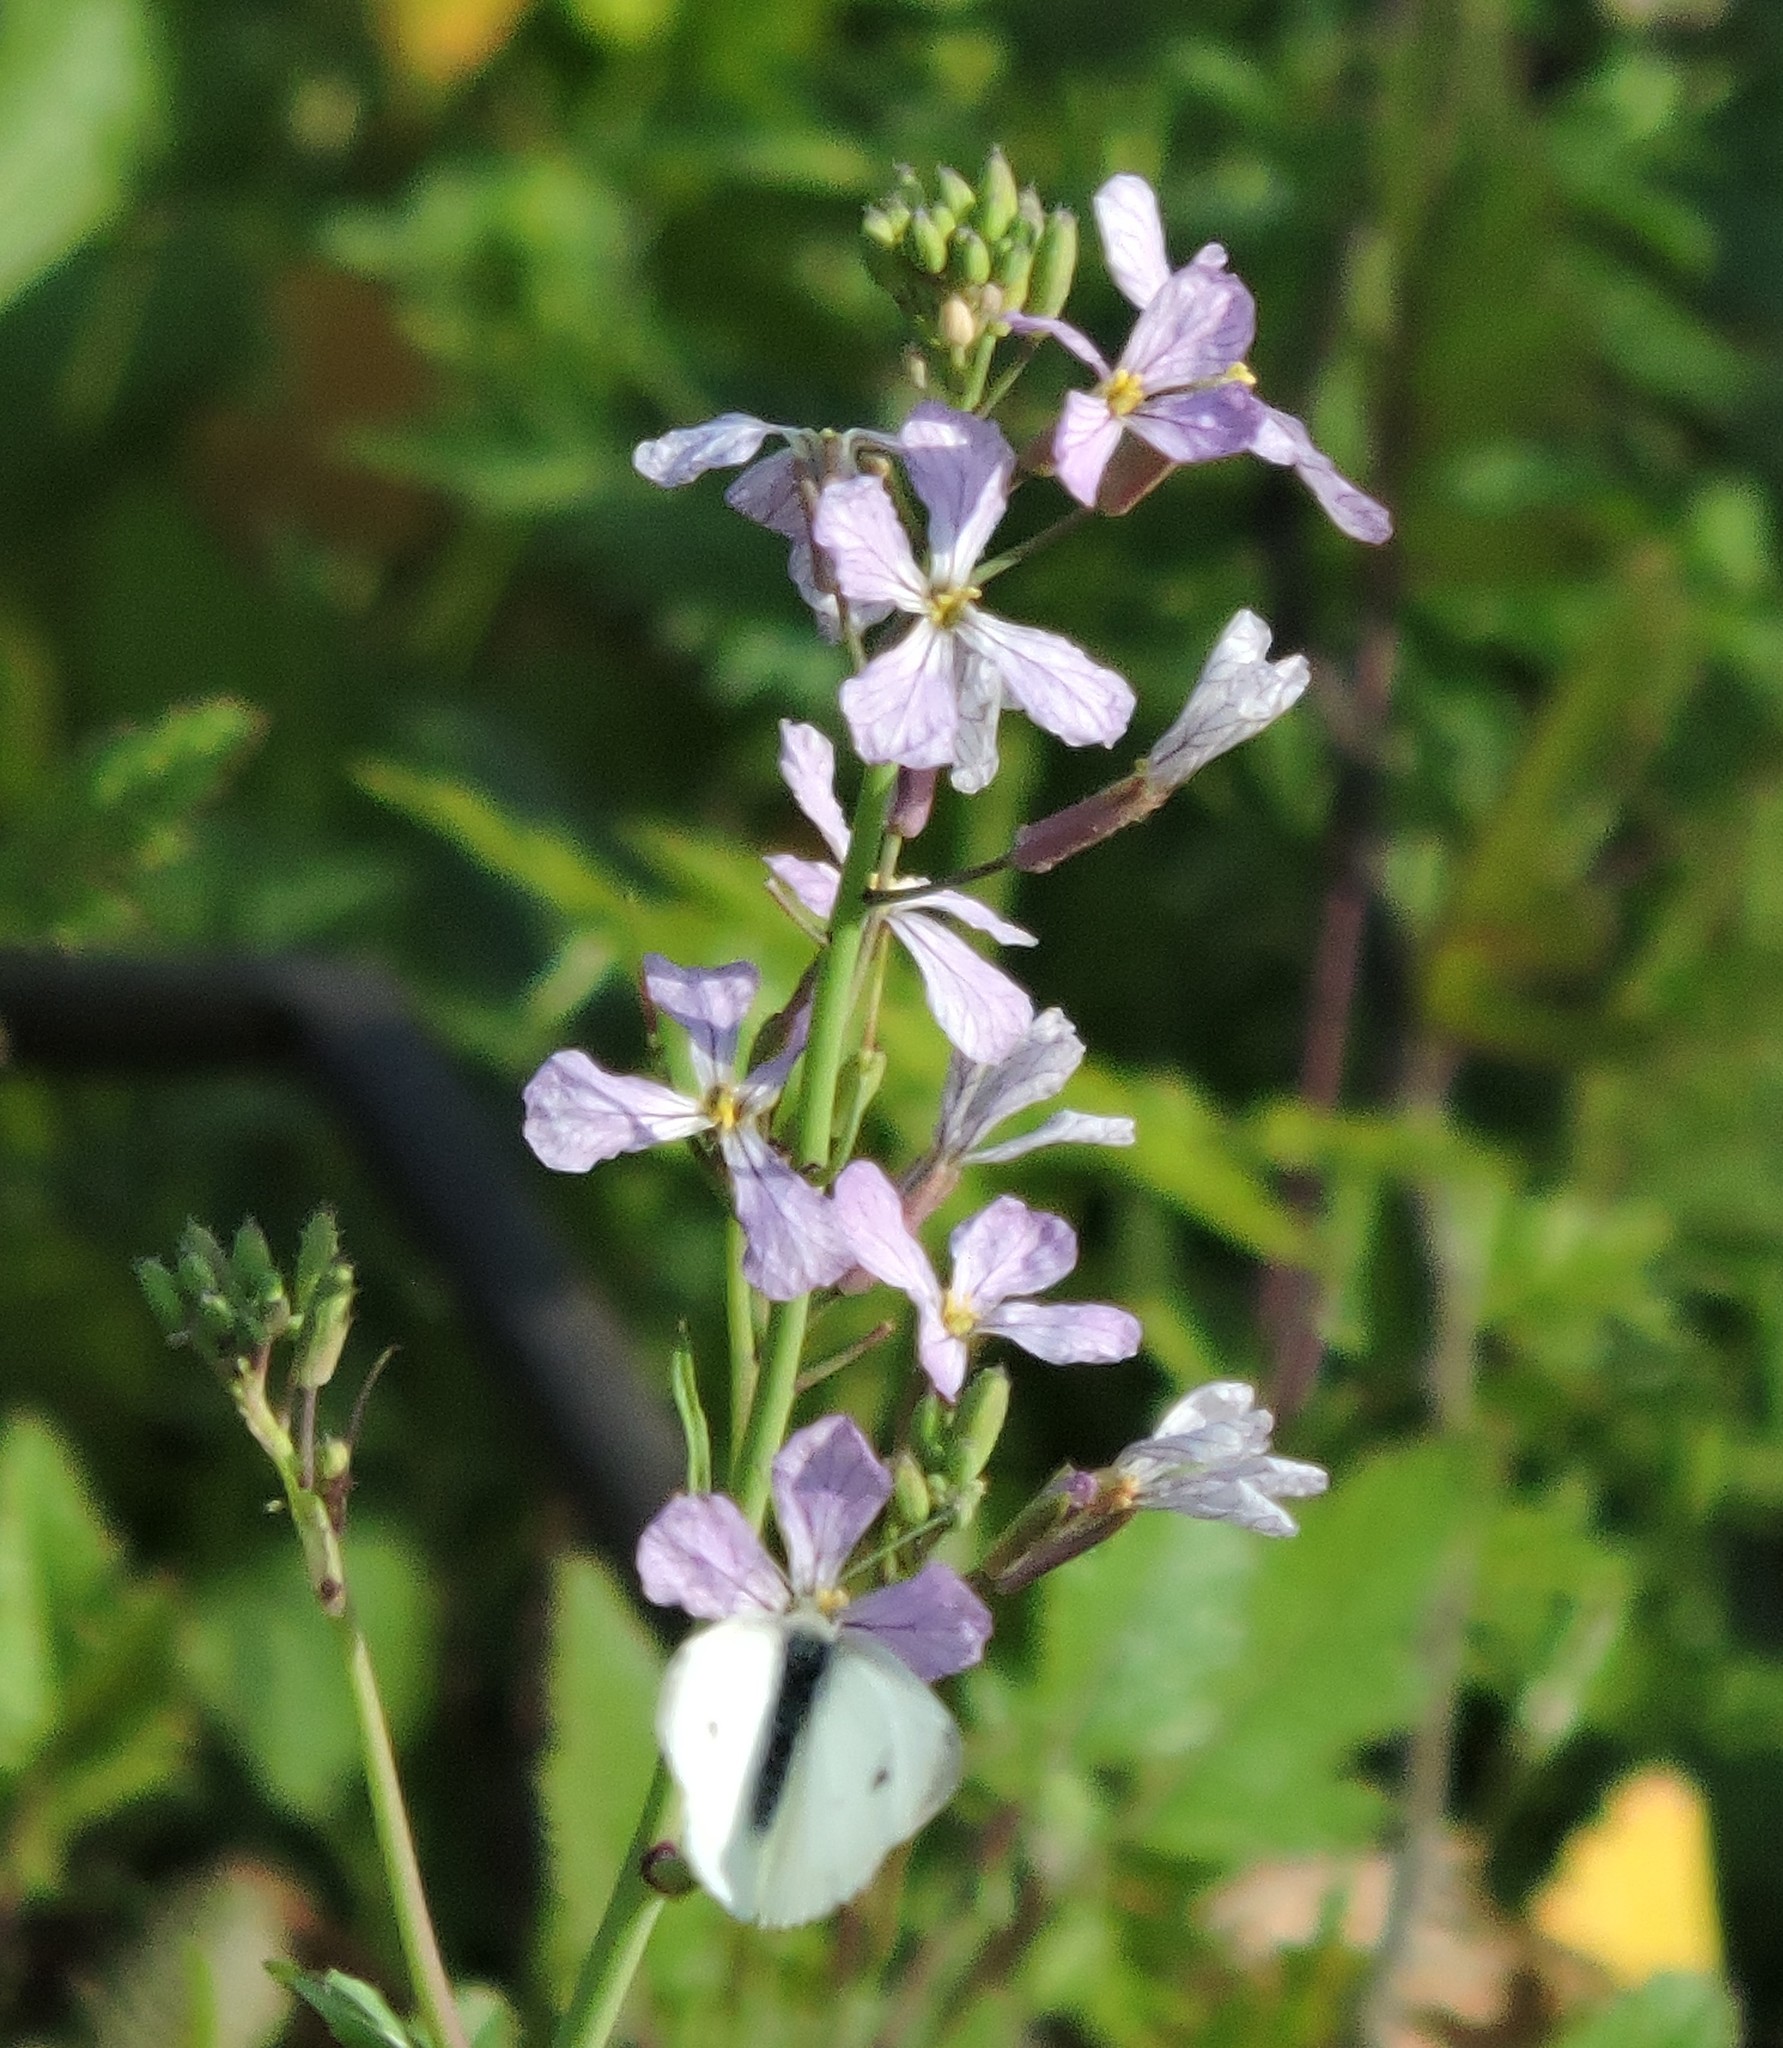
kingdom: Animalia
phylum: Arthropoda
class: Insecta
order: Lepidoptera
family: Pieridae
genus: Pieris
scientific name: Pieris rapae
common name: Small white
